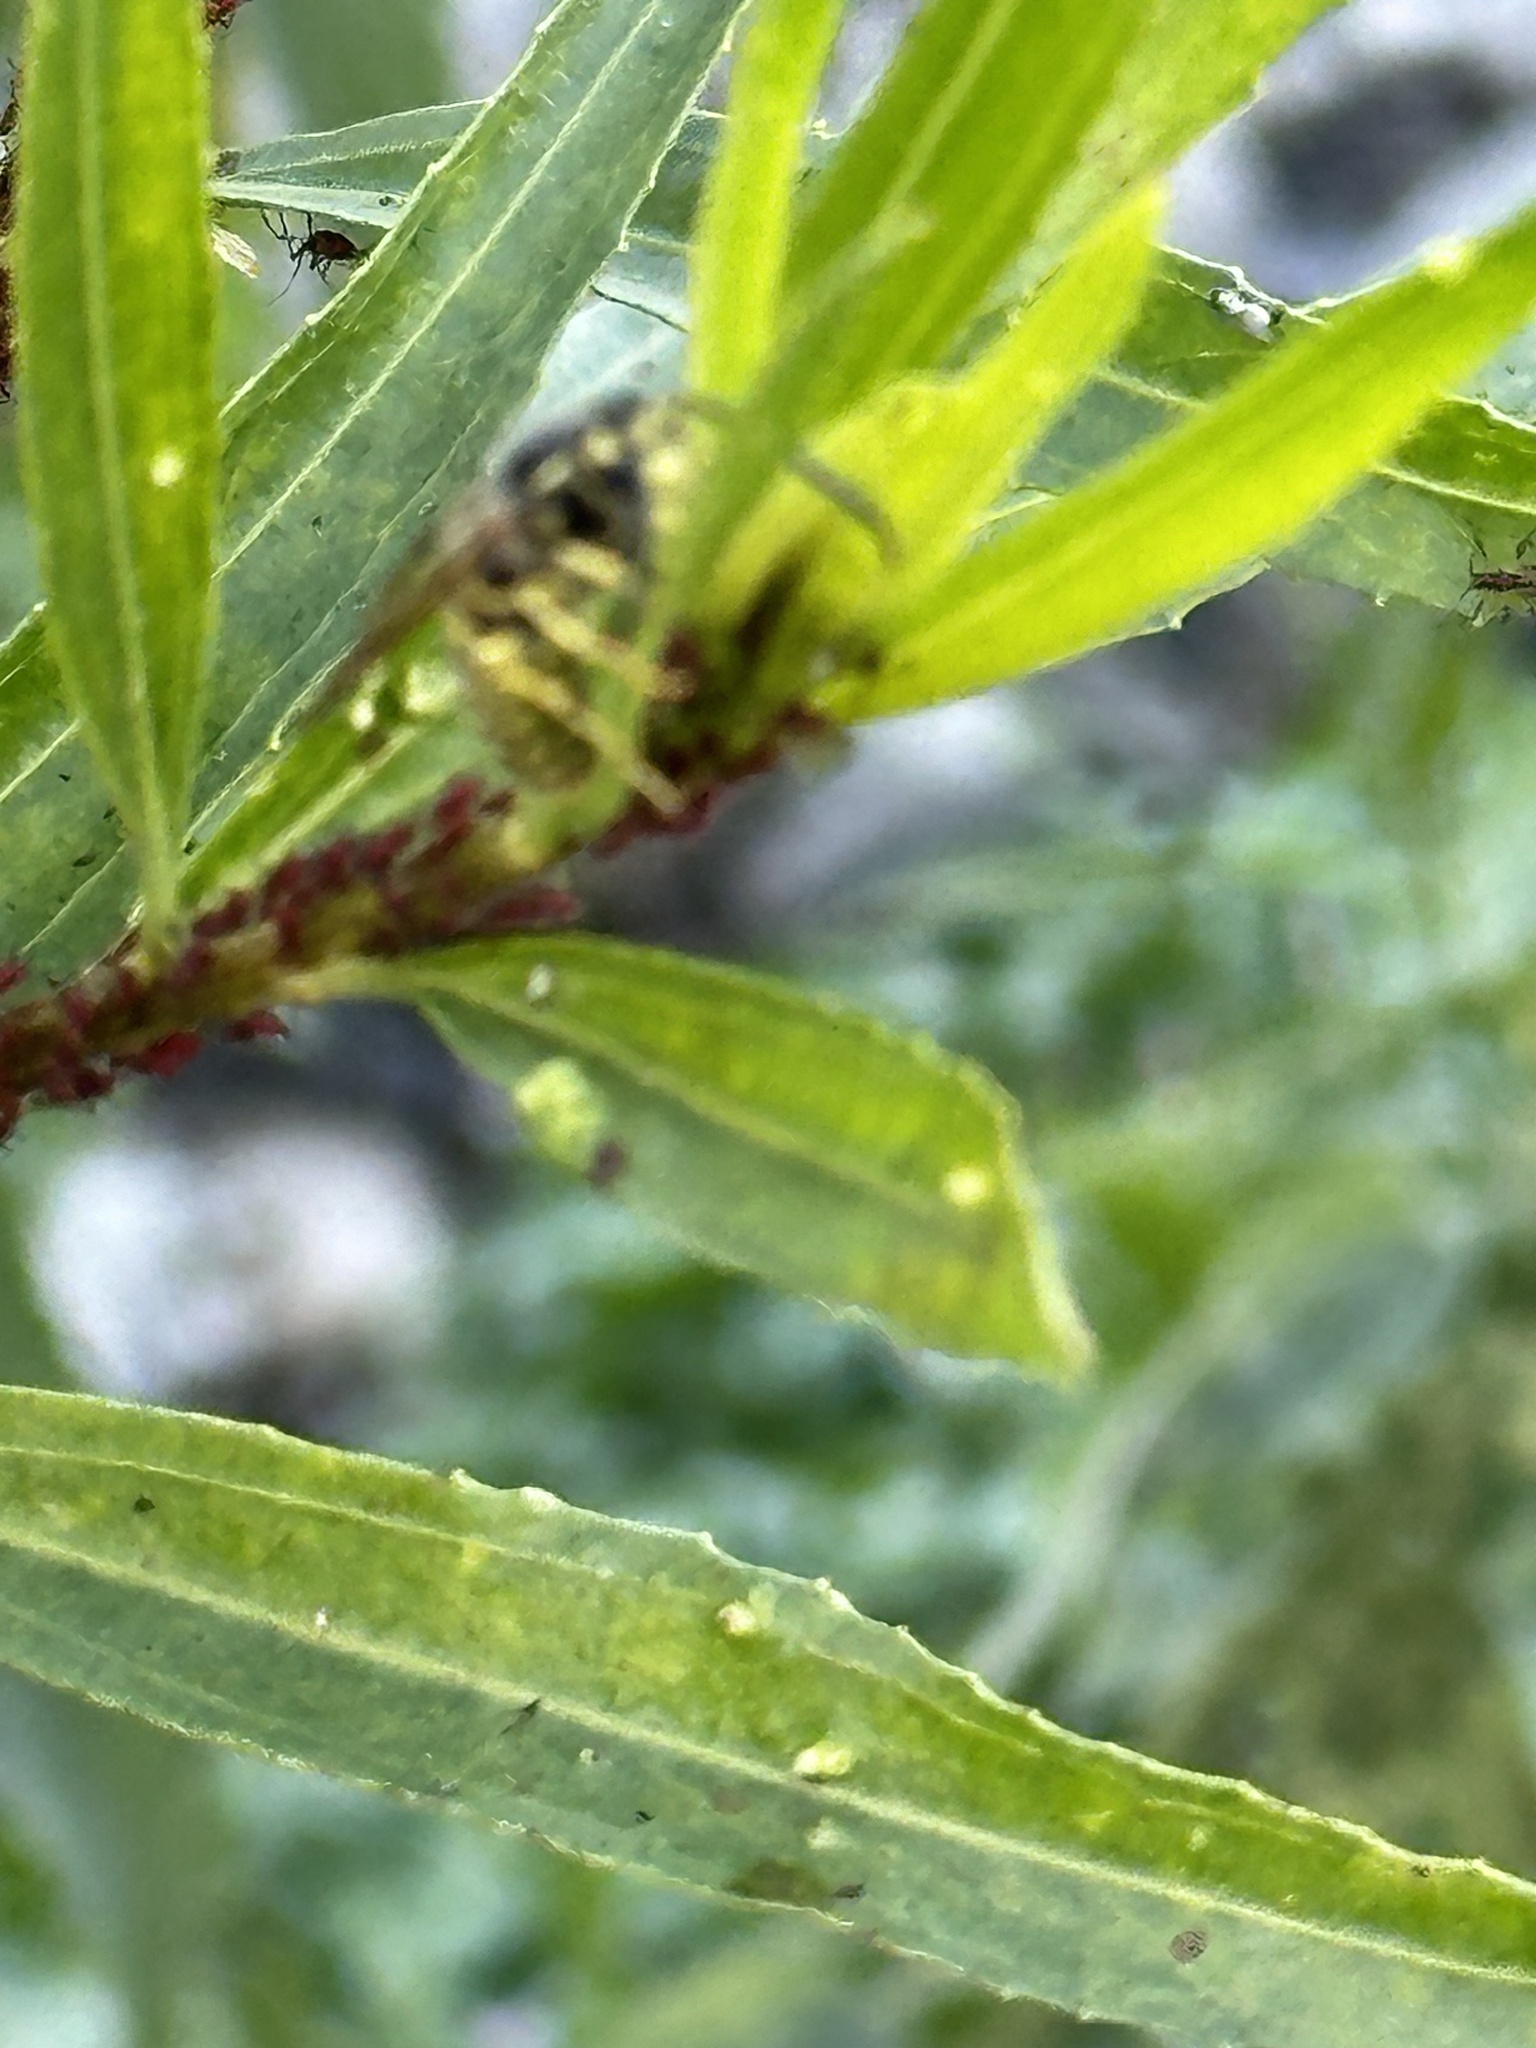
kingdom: Animalia
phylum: Arthropoda
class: Insecta
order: Hymenoptera
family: Vespidae
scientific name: Vespidae
